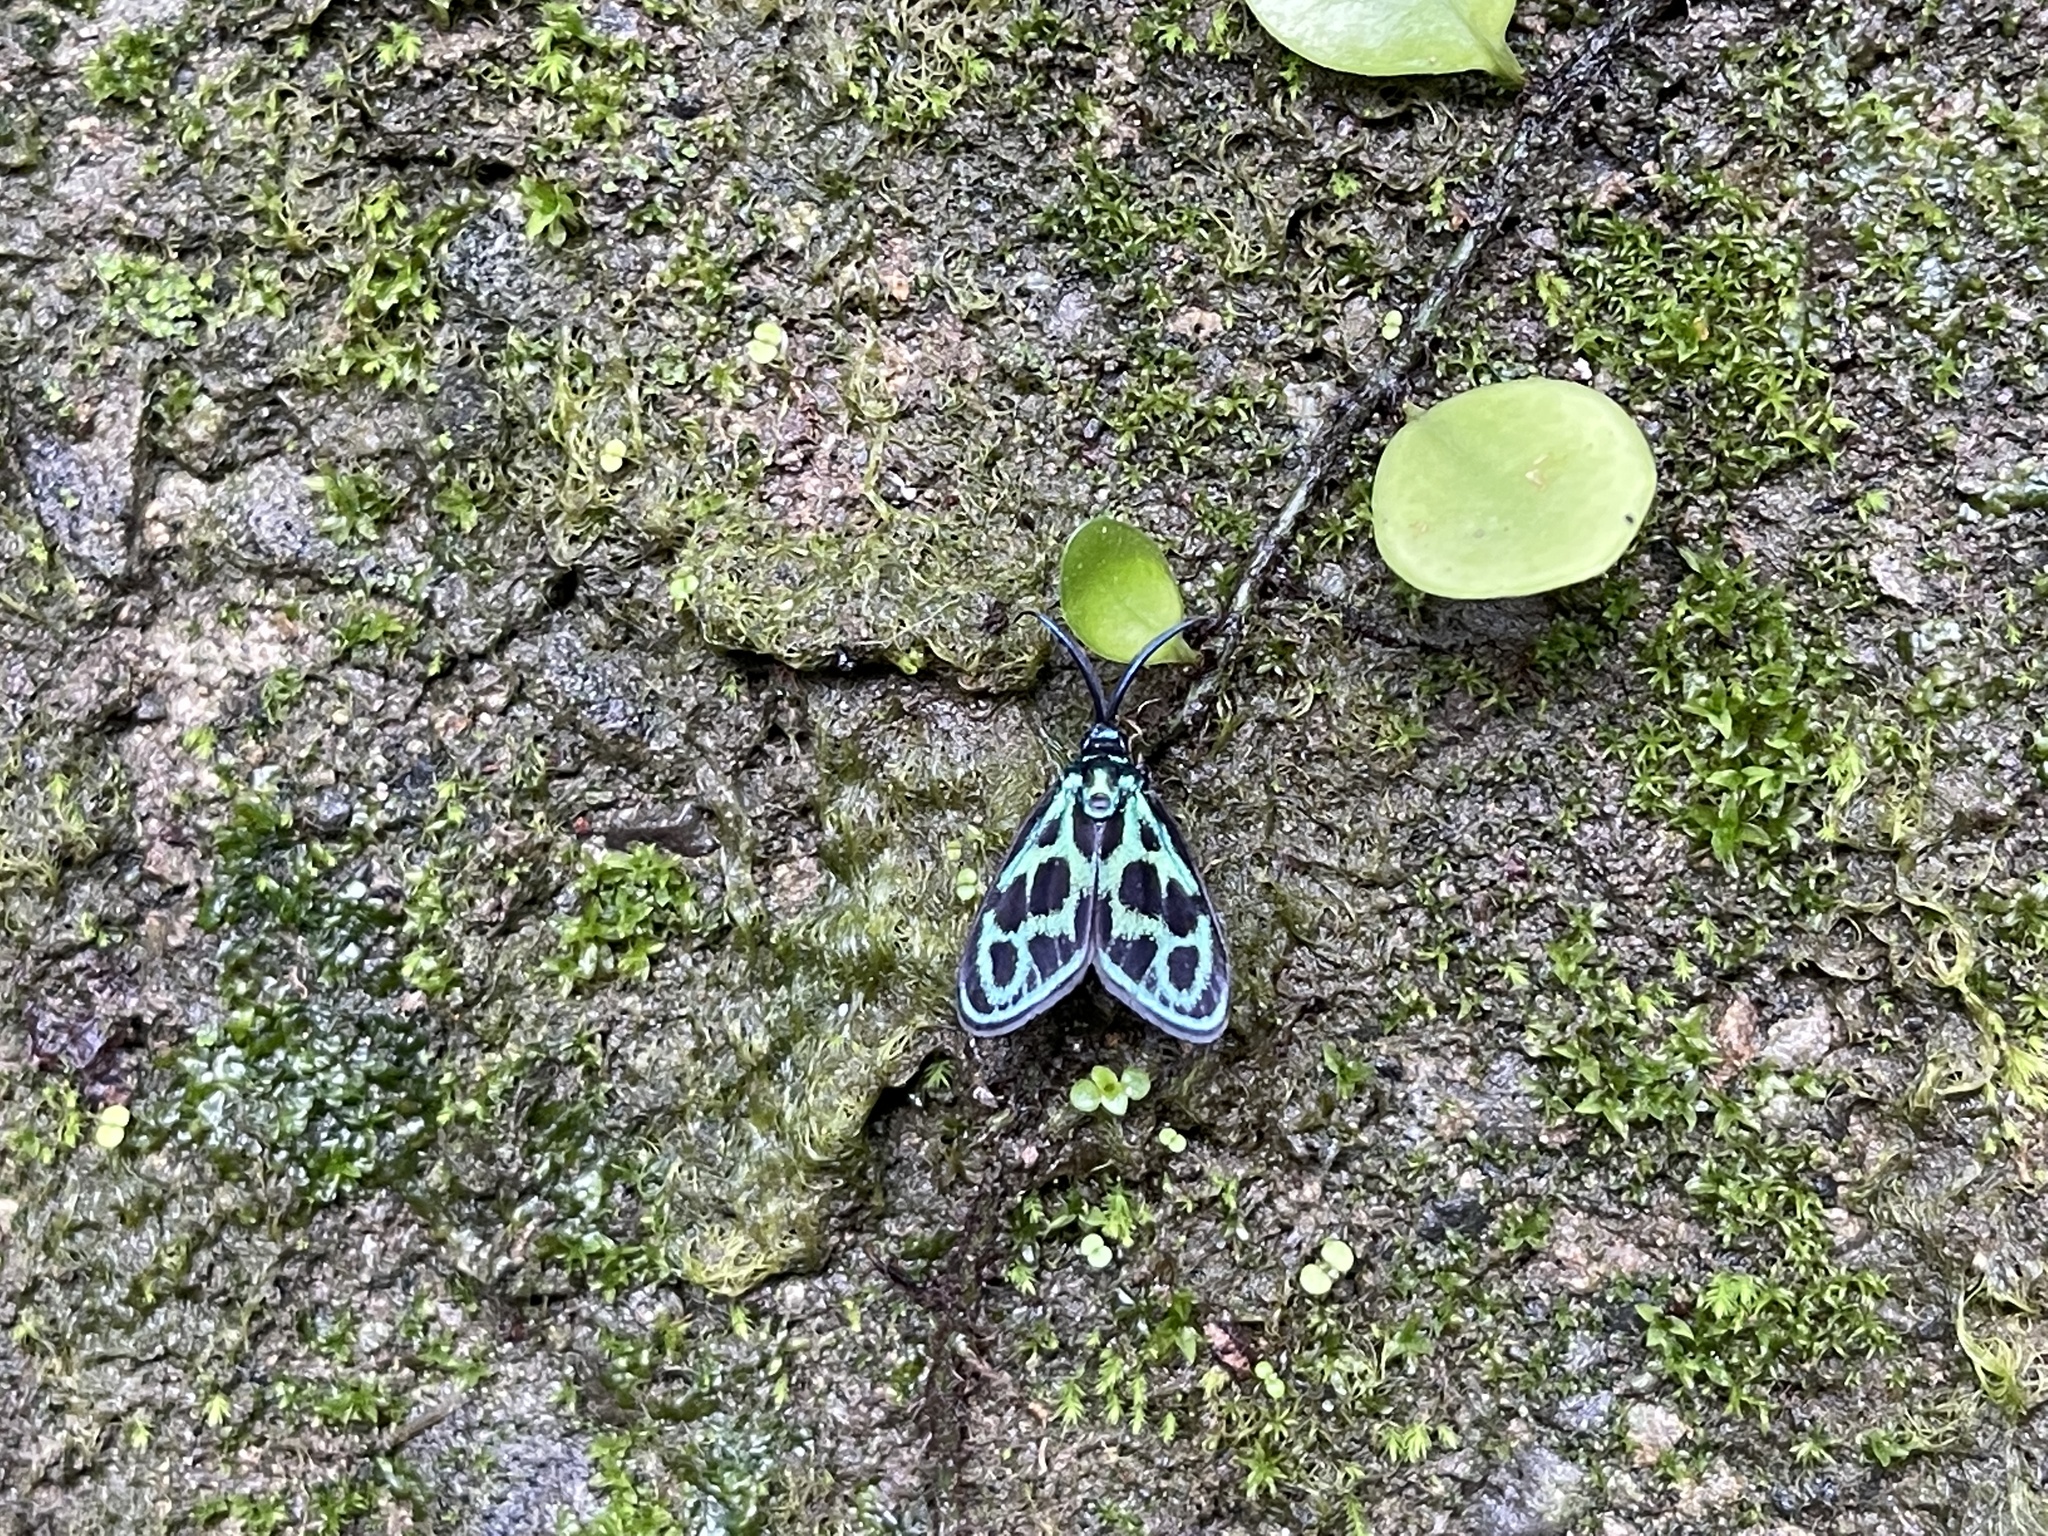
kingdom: Animalia
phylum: Arthropoda
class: Insecta
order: Lepidoptera
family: Zygaenidae
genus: Clelea
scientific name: Clelea simplicior
